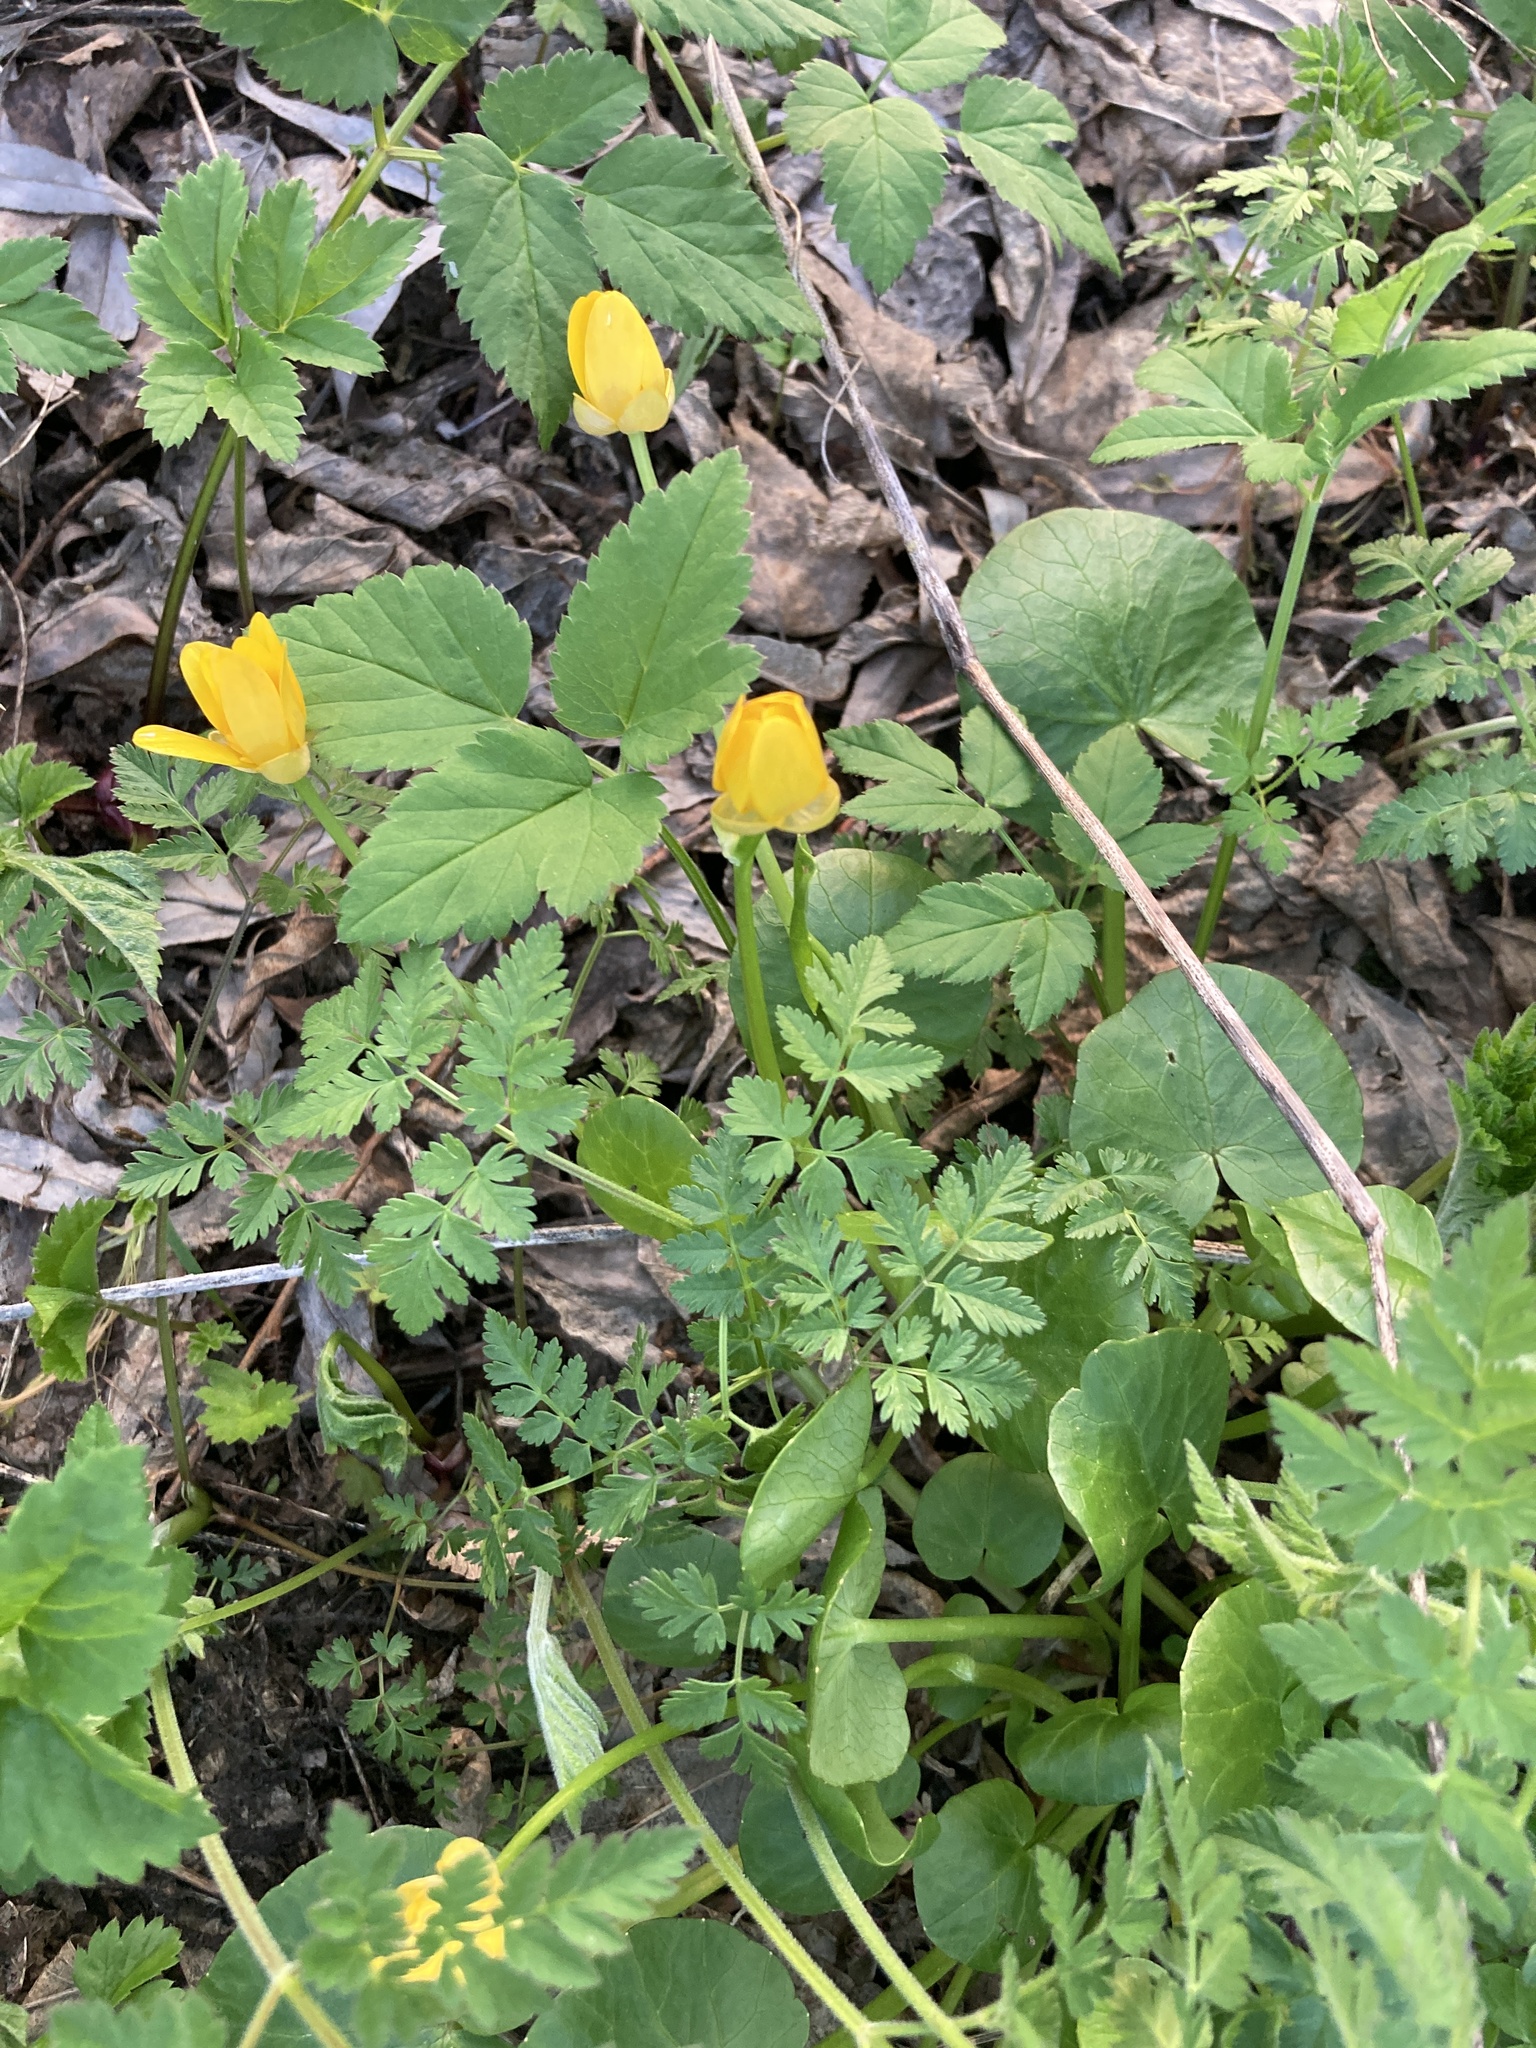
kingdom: Plantae
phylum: Tracheophyta
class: Magnoliopsida
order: Ranunculales
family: Ranunculaceae
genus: Ficaria
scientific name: Ficaria verna
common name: Lesser celandine
